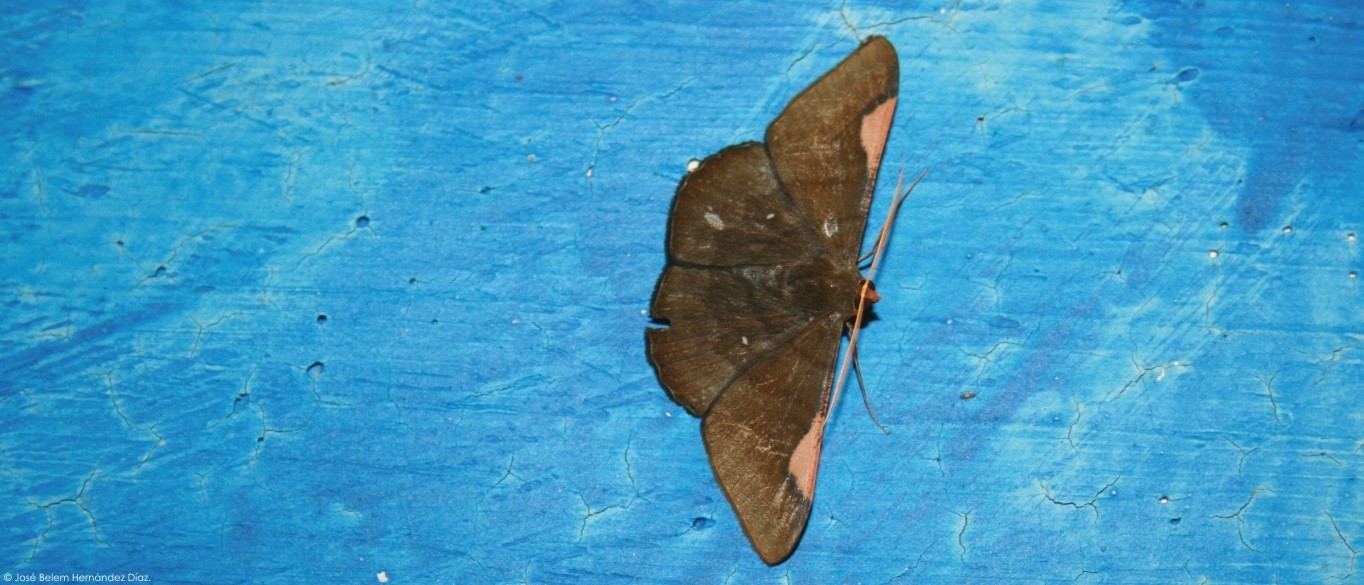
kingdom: Animalia
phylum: Arthropoda
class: Insecta
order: Lepidoptera
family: Geometridae
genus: Sphacelodes
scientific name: Sphacelodes vulneraria
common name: Looper moth
